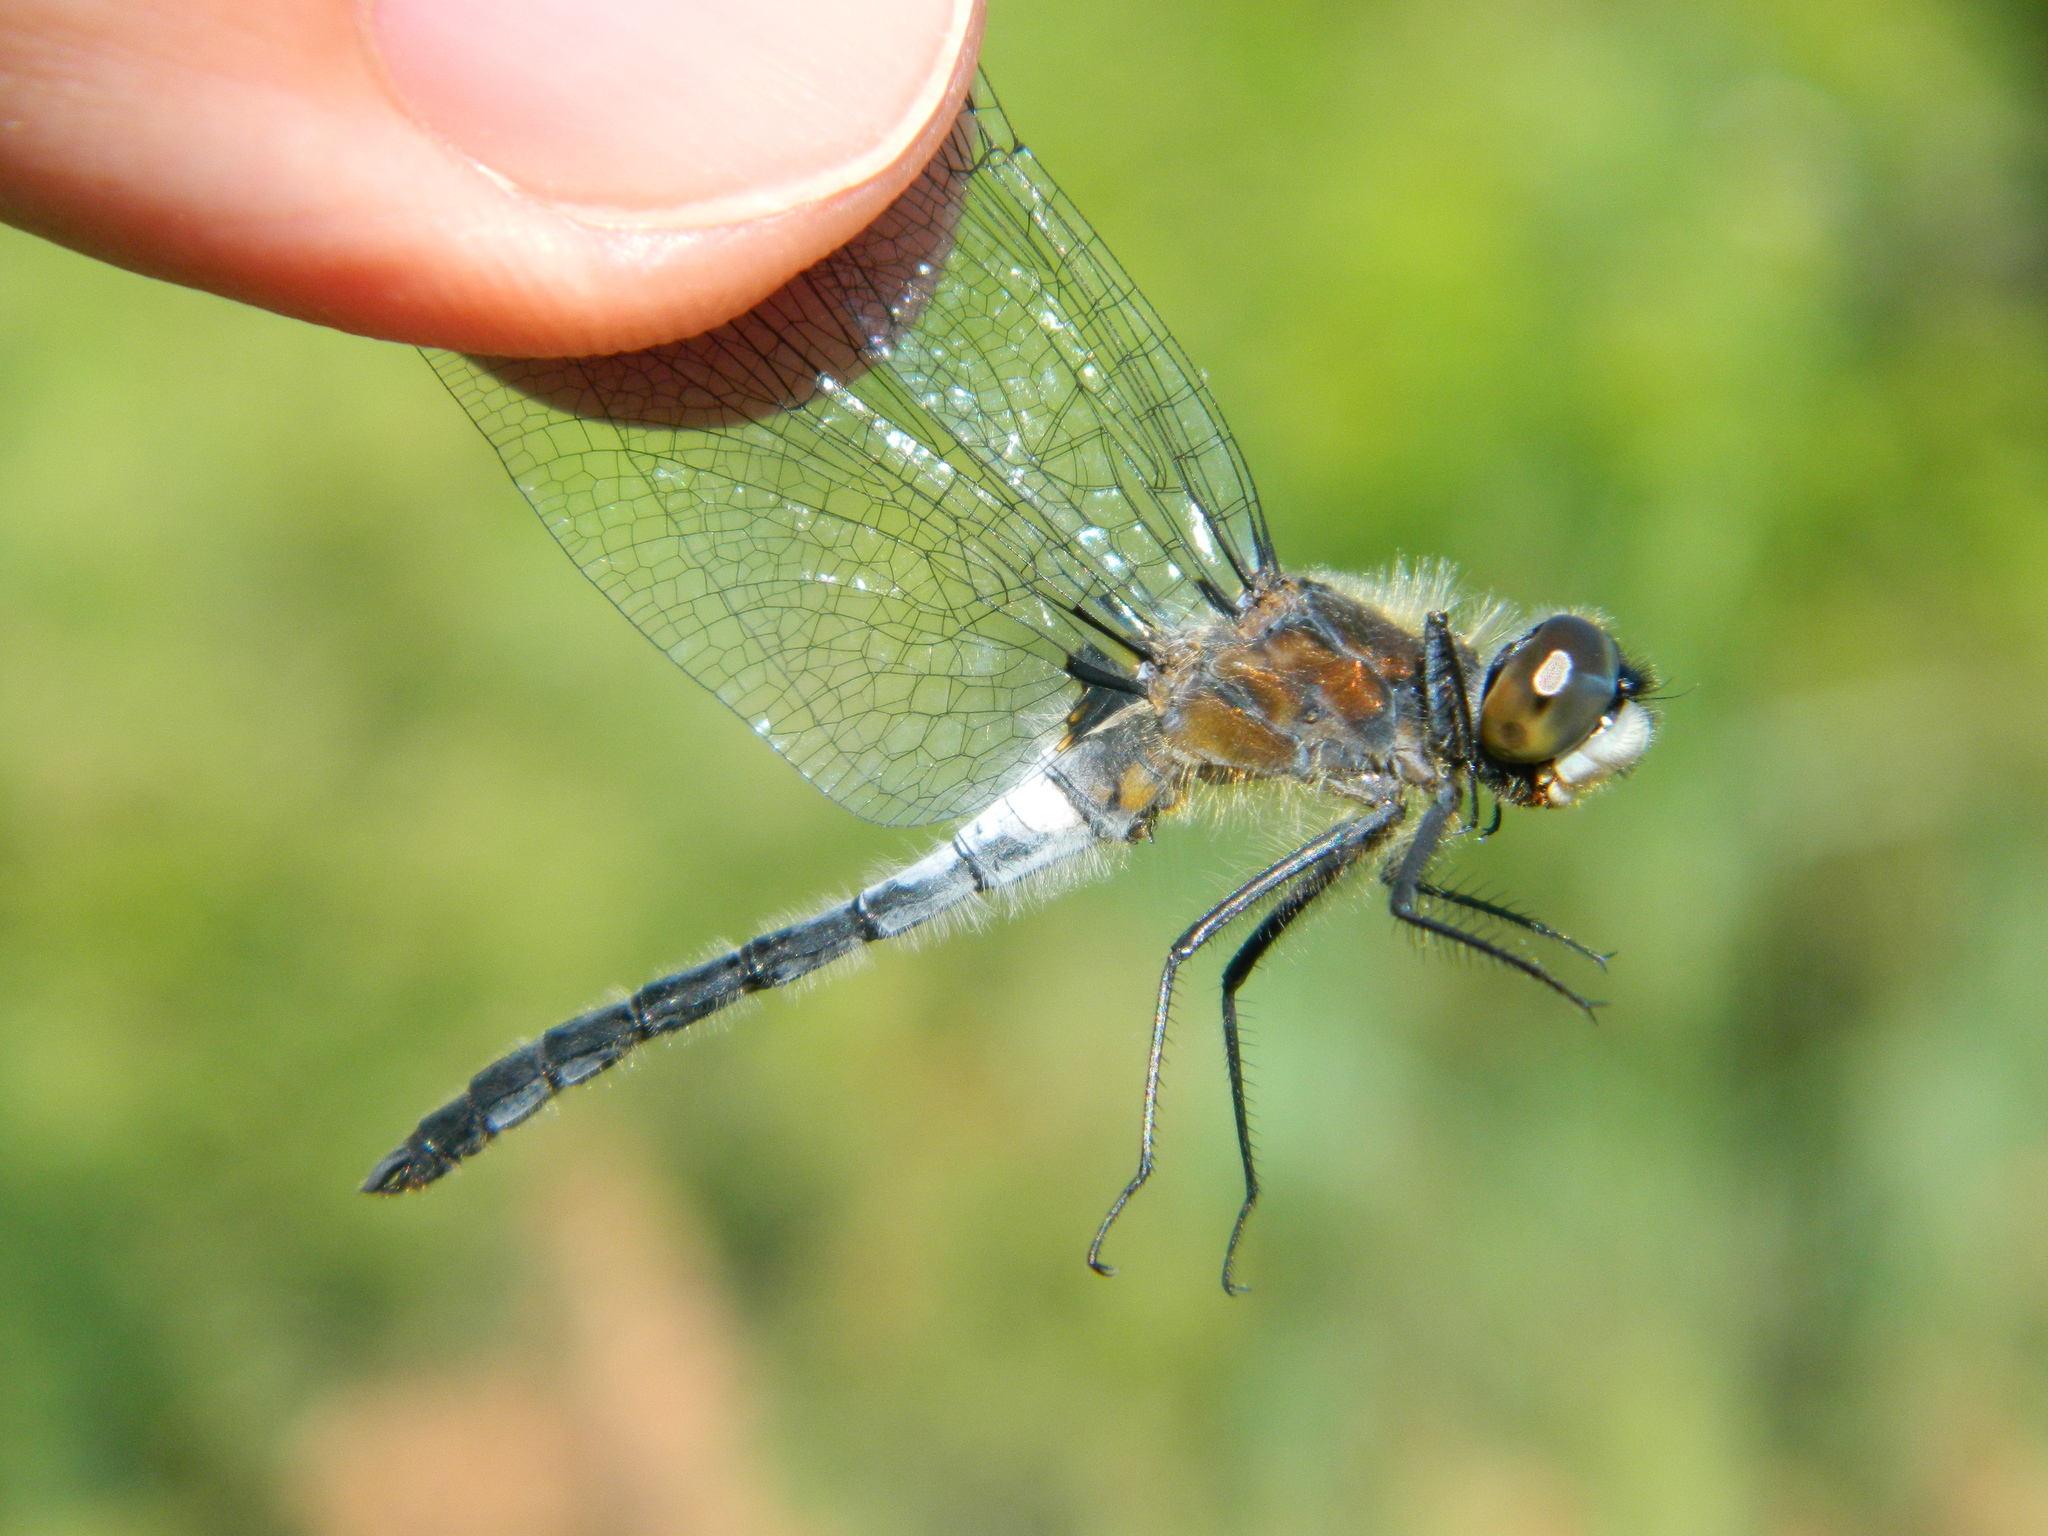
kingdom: Animalia
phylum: Arthropoda
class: Insecta
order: Odonata
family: Libellulidae
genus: Leucorrhinia
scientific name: Leucorrhinia frigida
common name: Frosted whiteface
